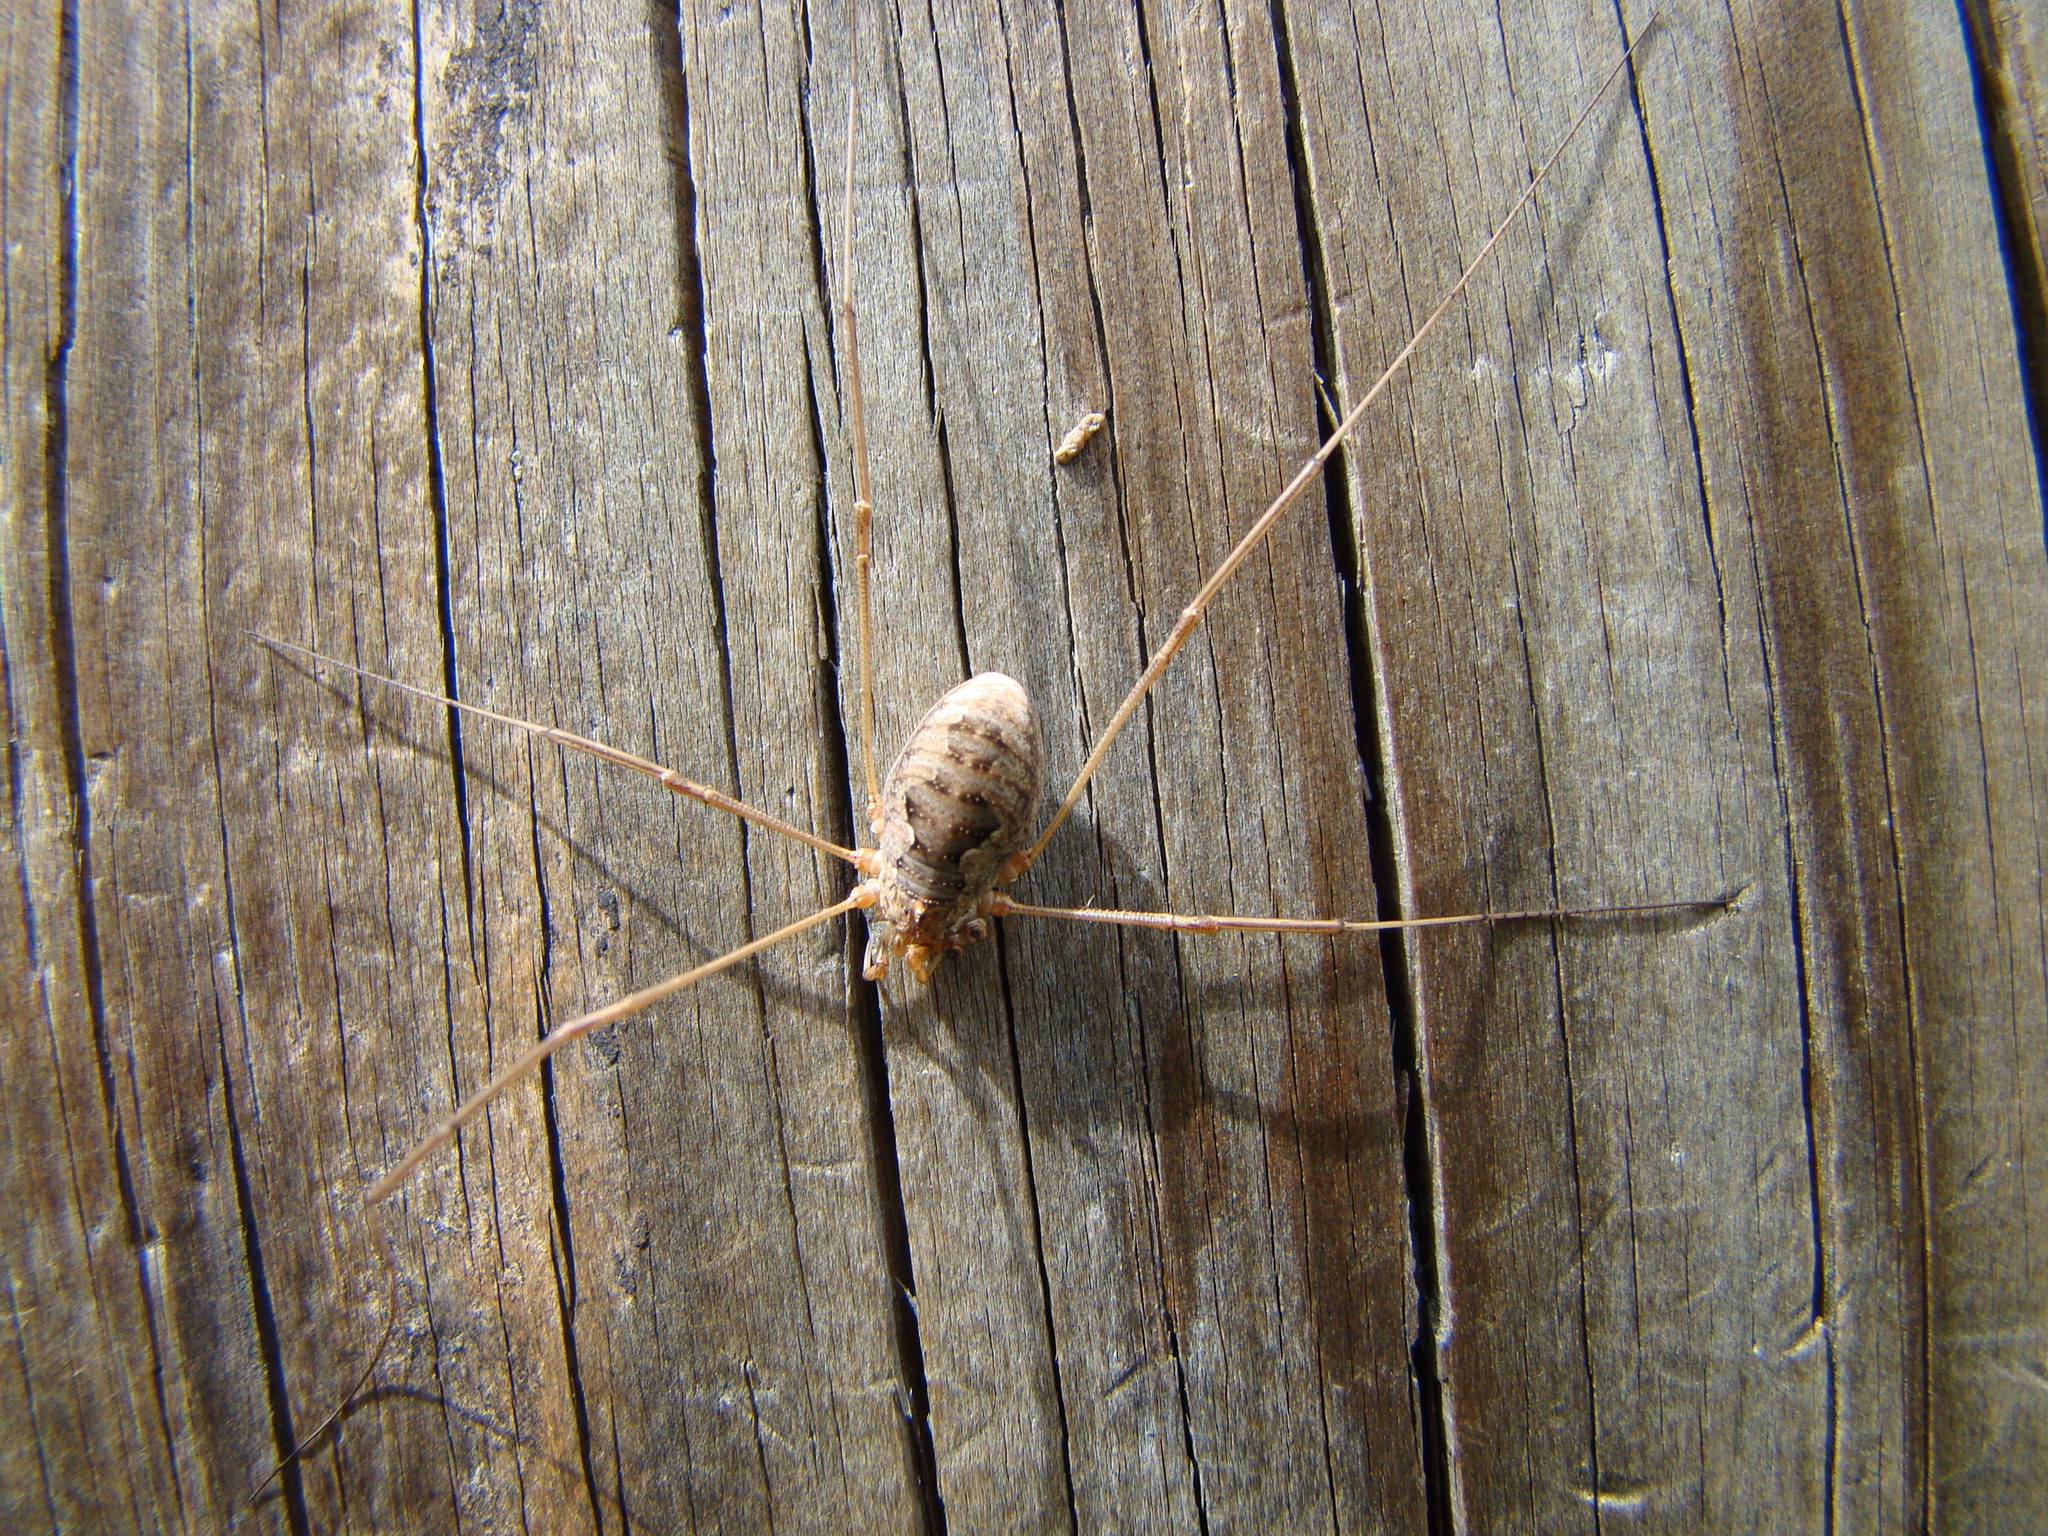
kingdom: Animalia
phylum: Arthropoda
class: Arachnida
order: Opiliones
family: Phalangiidae
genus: Phalangium
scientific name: Phalangium opilio
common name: Daddy longleg
